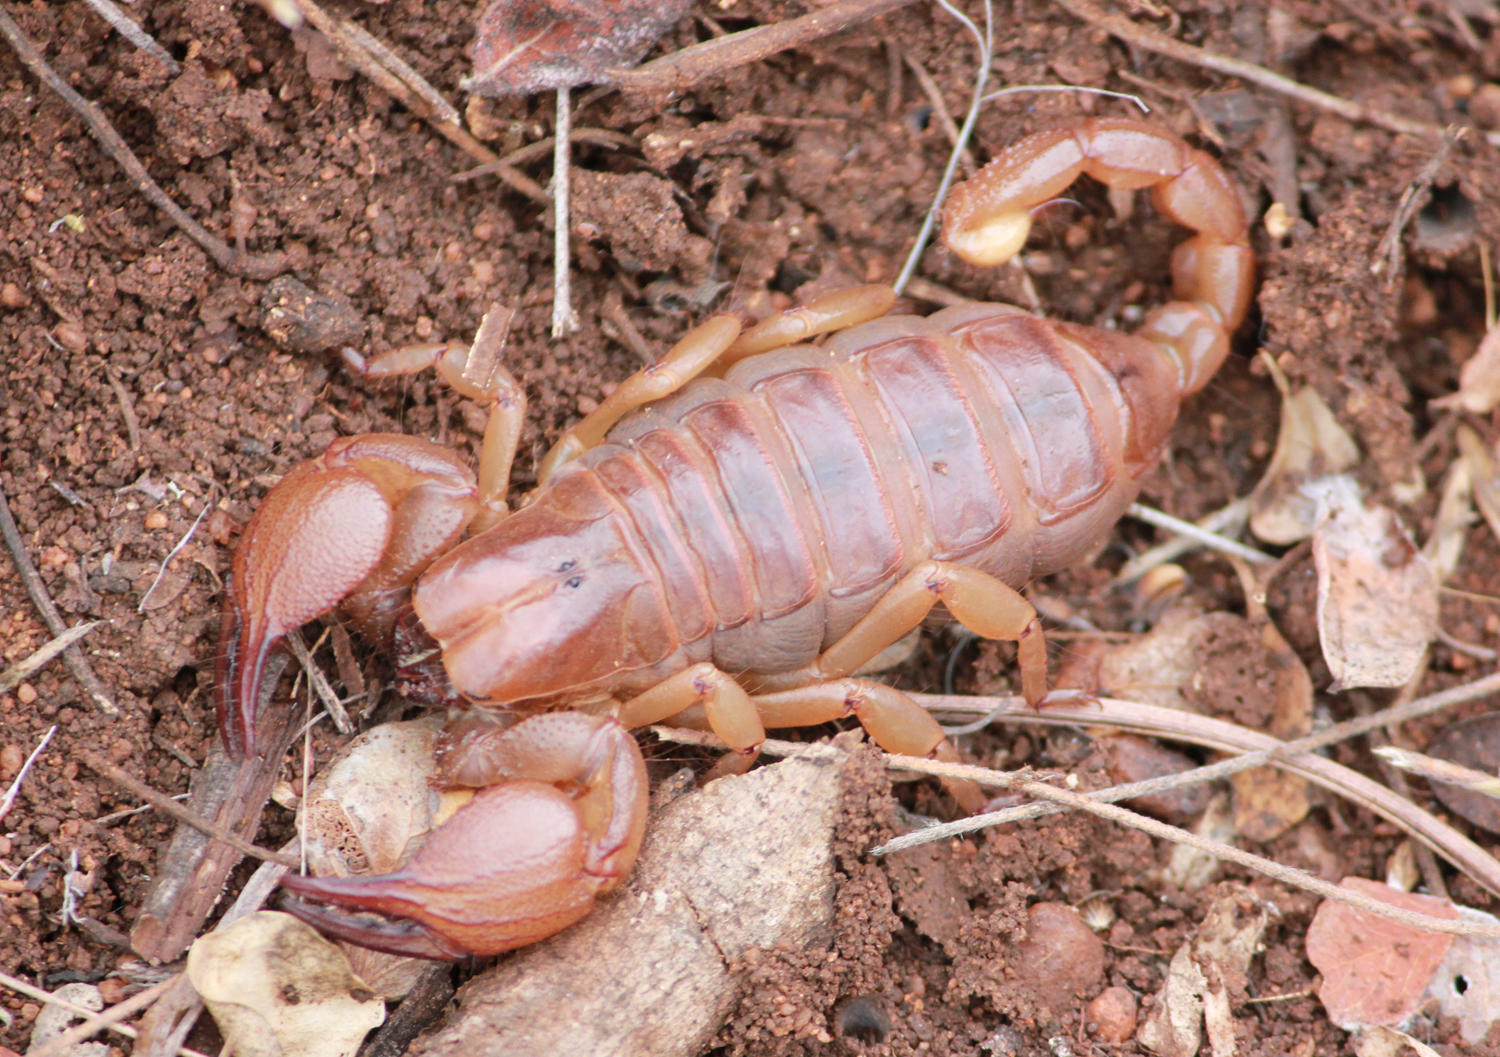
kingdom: Animalia
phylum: Arthropoda
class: Arachnida
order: Scorpiones
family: Scorpionidae
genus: Opistophthalmus
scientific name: Opistophthalmus glabrifrons
